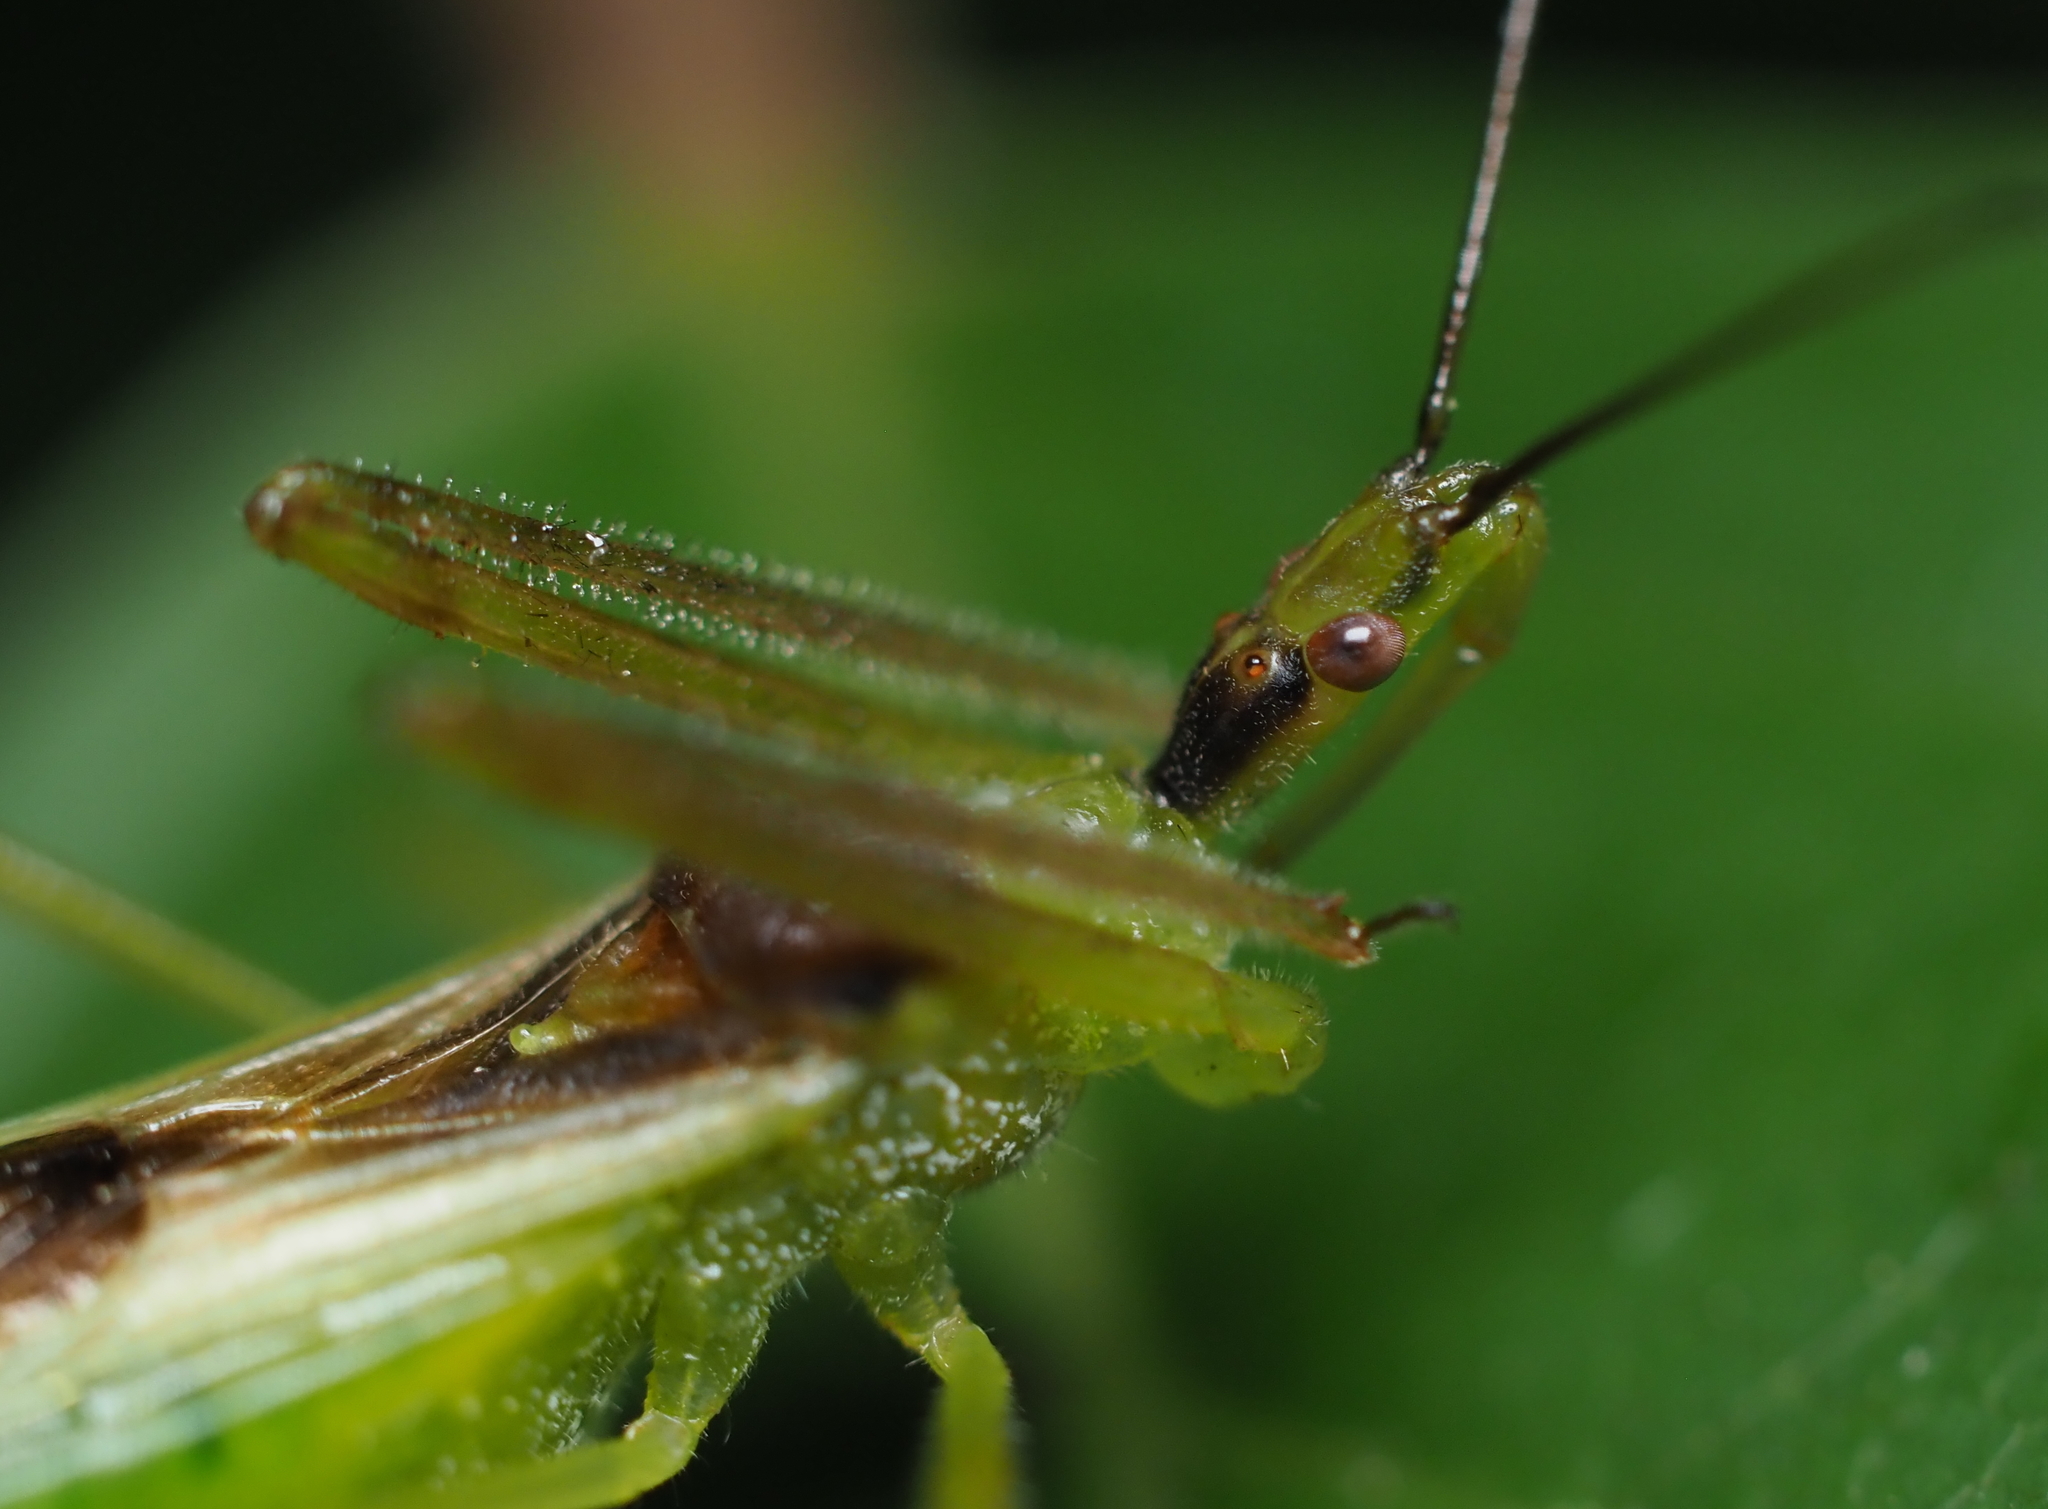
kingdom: Animalia
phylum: Arthropoda
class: Insecta
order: Hemiptera
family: Reduviidae
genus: Zelus
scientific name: Zelus luridus
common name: Pale green assassin bug
